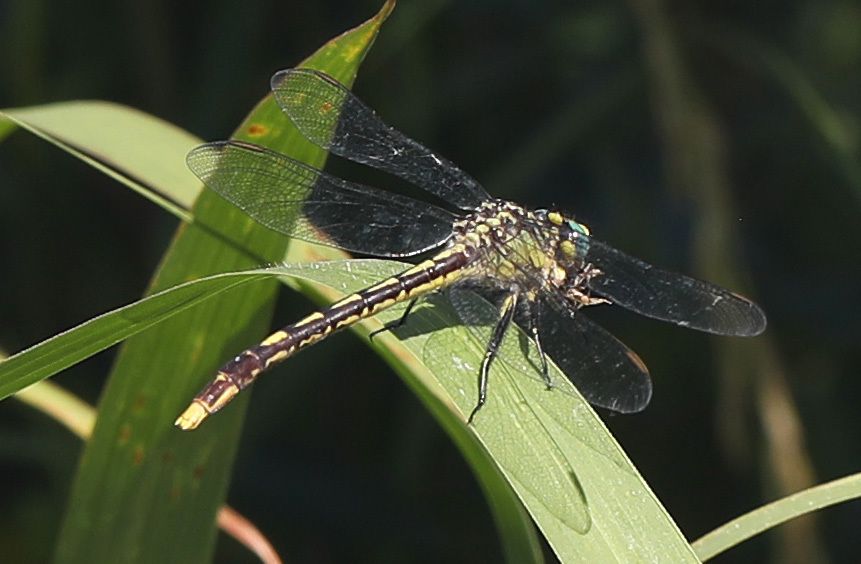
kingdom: Animalia
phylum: Arthropoda
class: Insecta
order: Odonata
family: Gomphidae
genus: Arigomphus
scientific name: Arigomphus villosipes
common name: Unicorn clubtail
